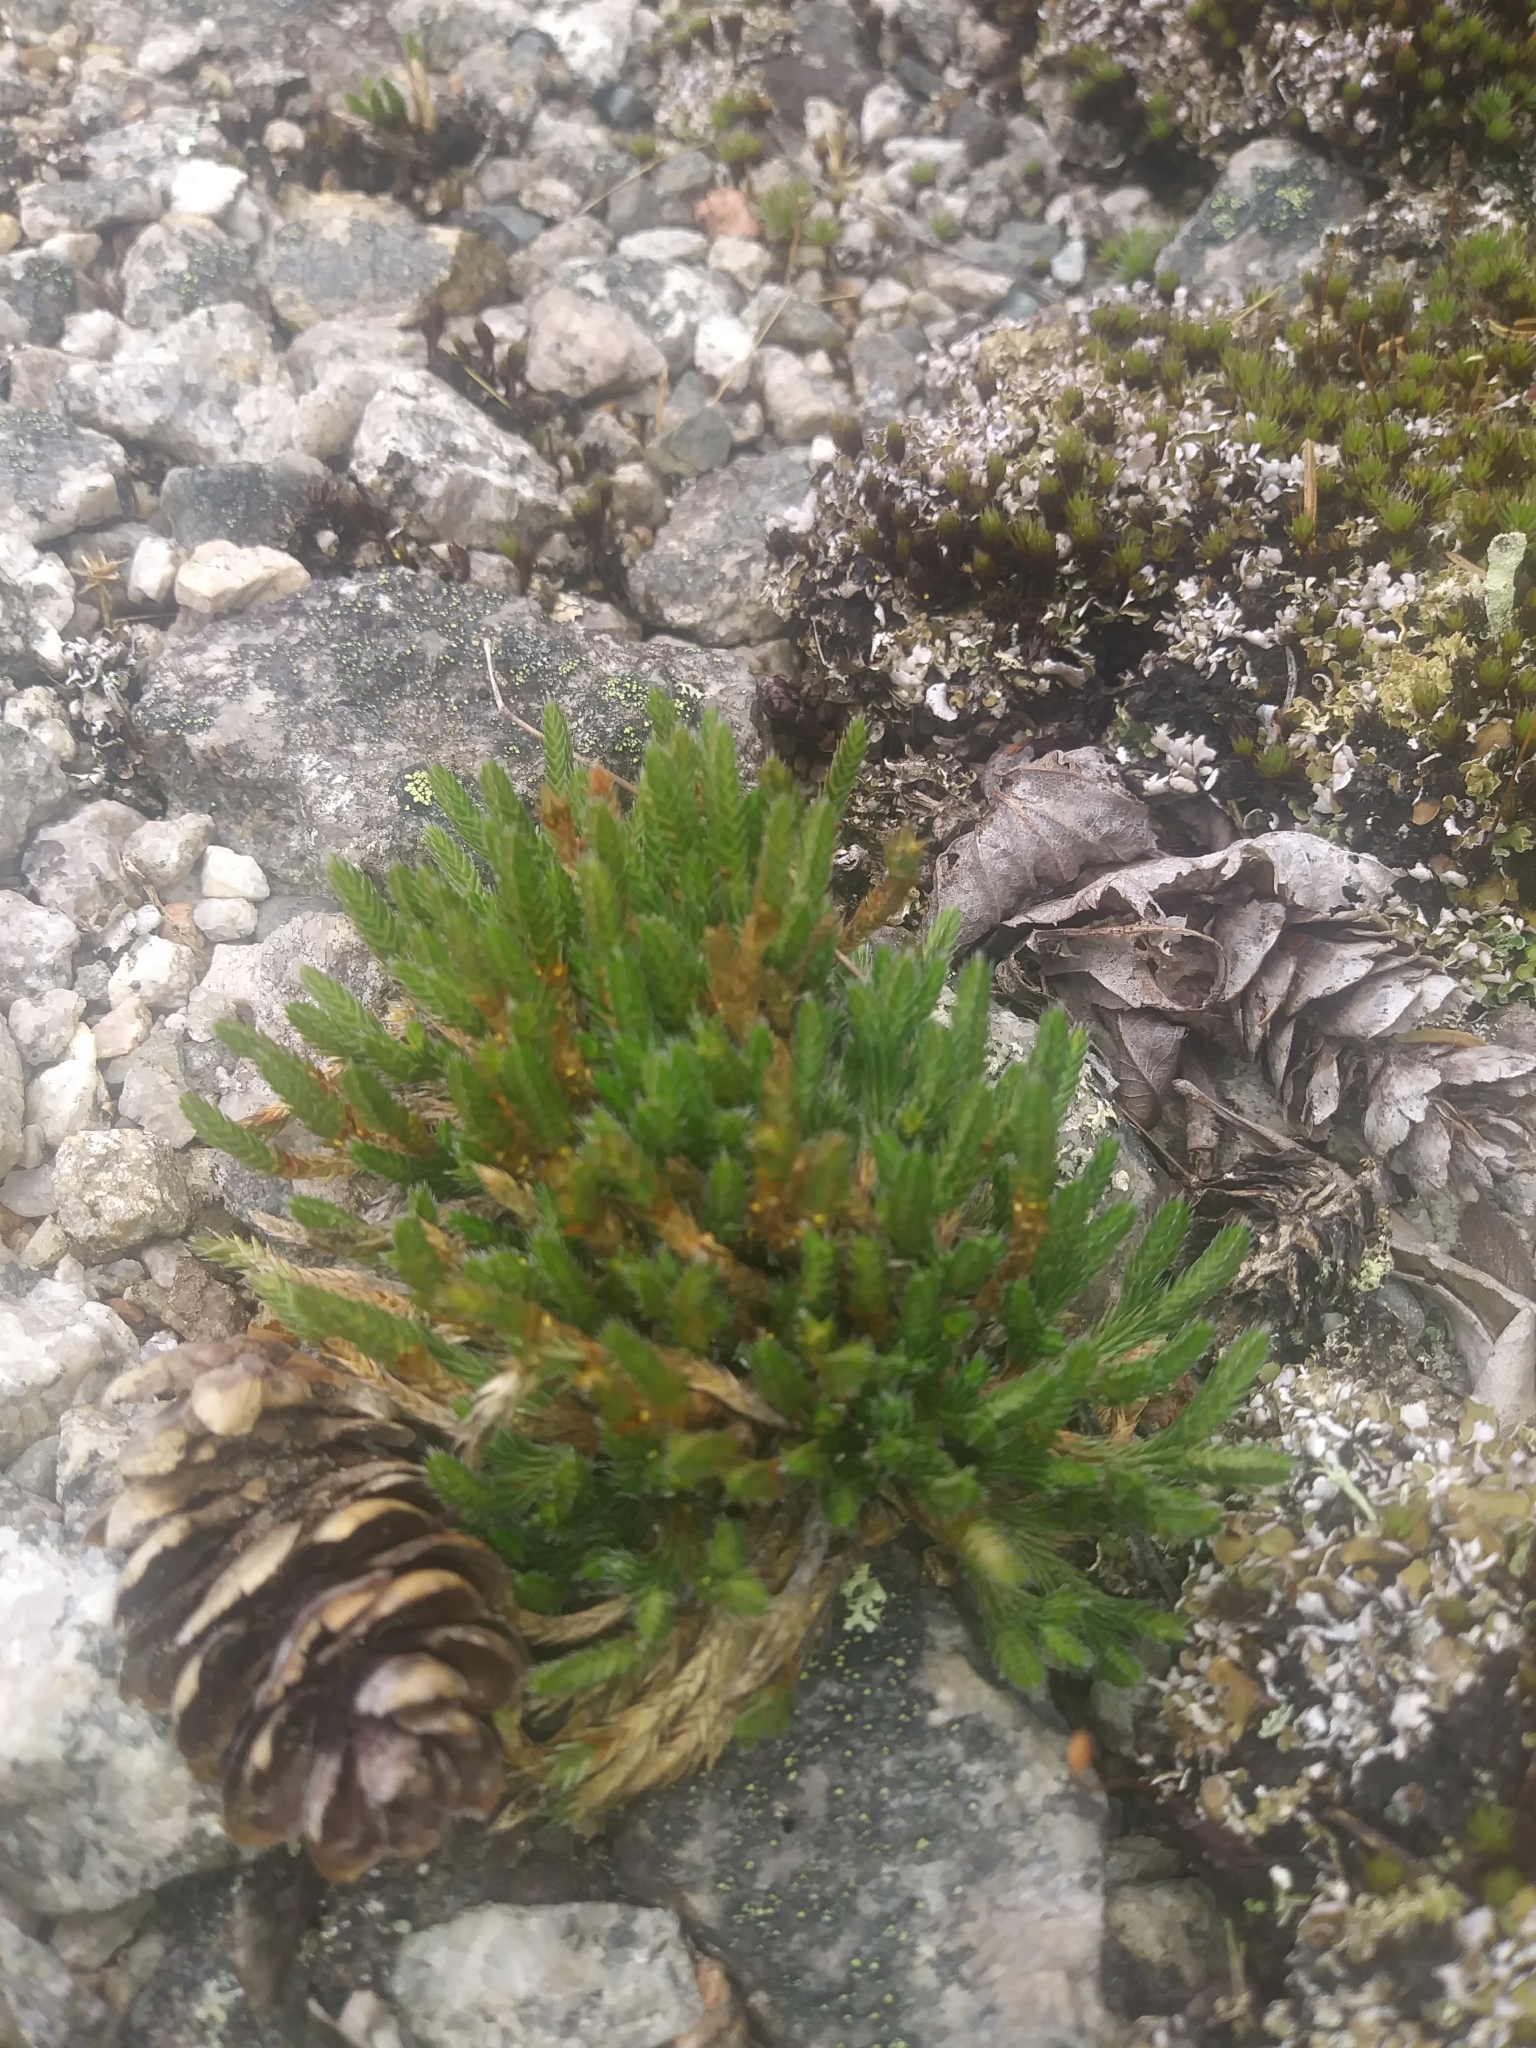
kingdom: Plantae
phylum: Tracheophyta
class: Lycopodiopsida
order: Selaginellales
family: Selaginellaceae
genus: Selaginella
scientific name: Selaginella rupestris
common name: Dwarf spikemoss
